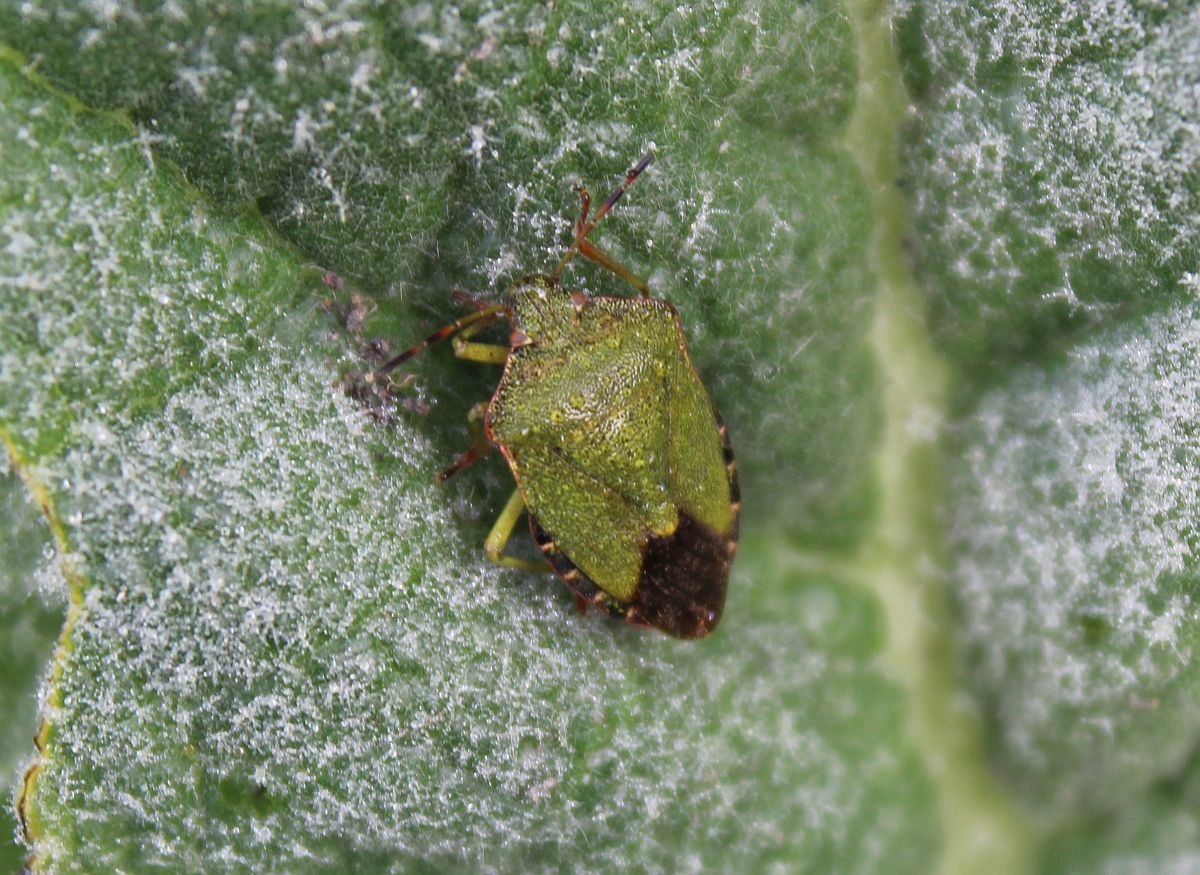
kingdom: Animalia
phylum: Arthropoda
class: Insecta
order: Hemiptera
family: Pentatomidae
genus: Palomena
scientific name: Palomena prasina
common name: Green shieldbug
